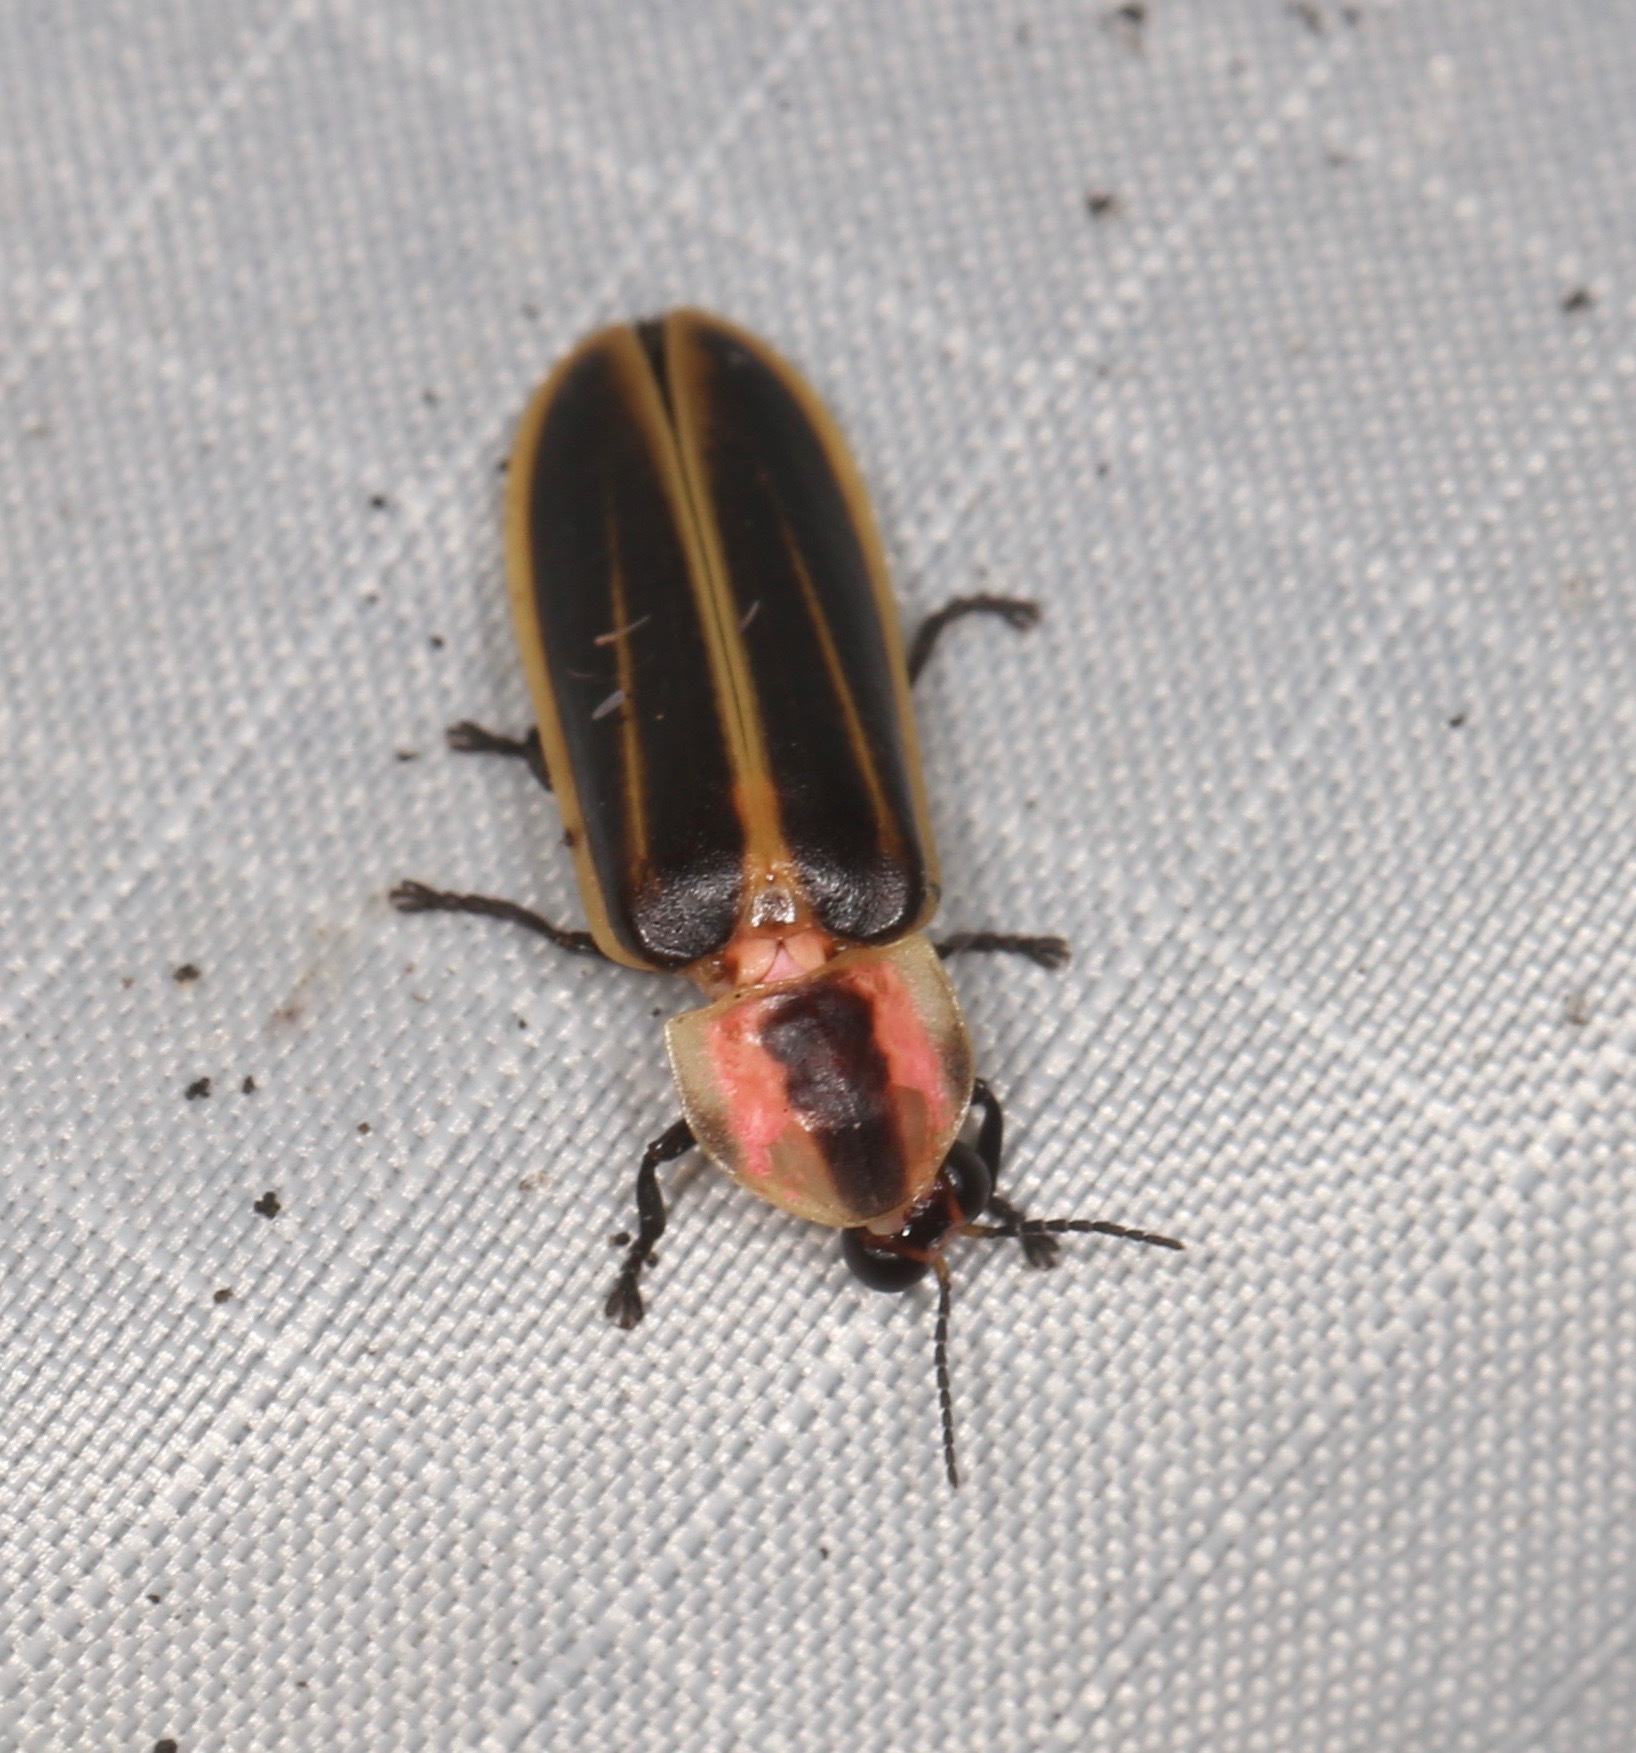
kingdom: Animalia
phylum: Arthropoda
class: Insecta
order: Coleoptera
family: Lampyridae
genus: Pyractomena
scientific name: Pyractomena ecostata
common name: Keel-necked firefly
